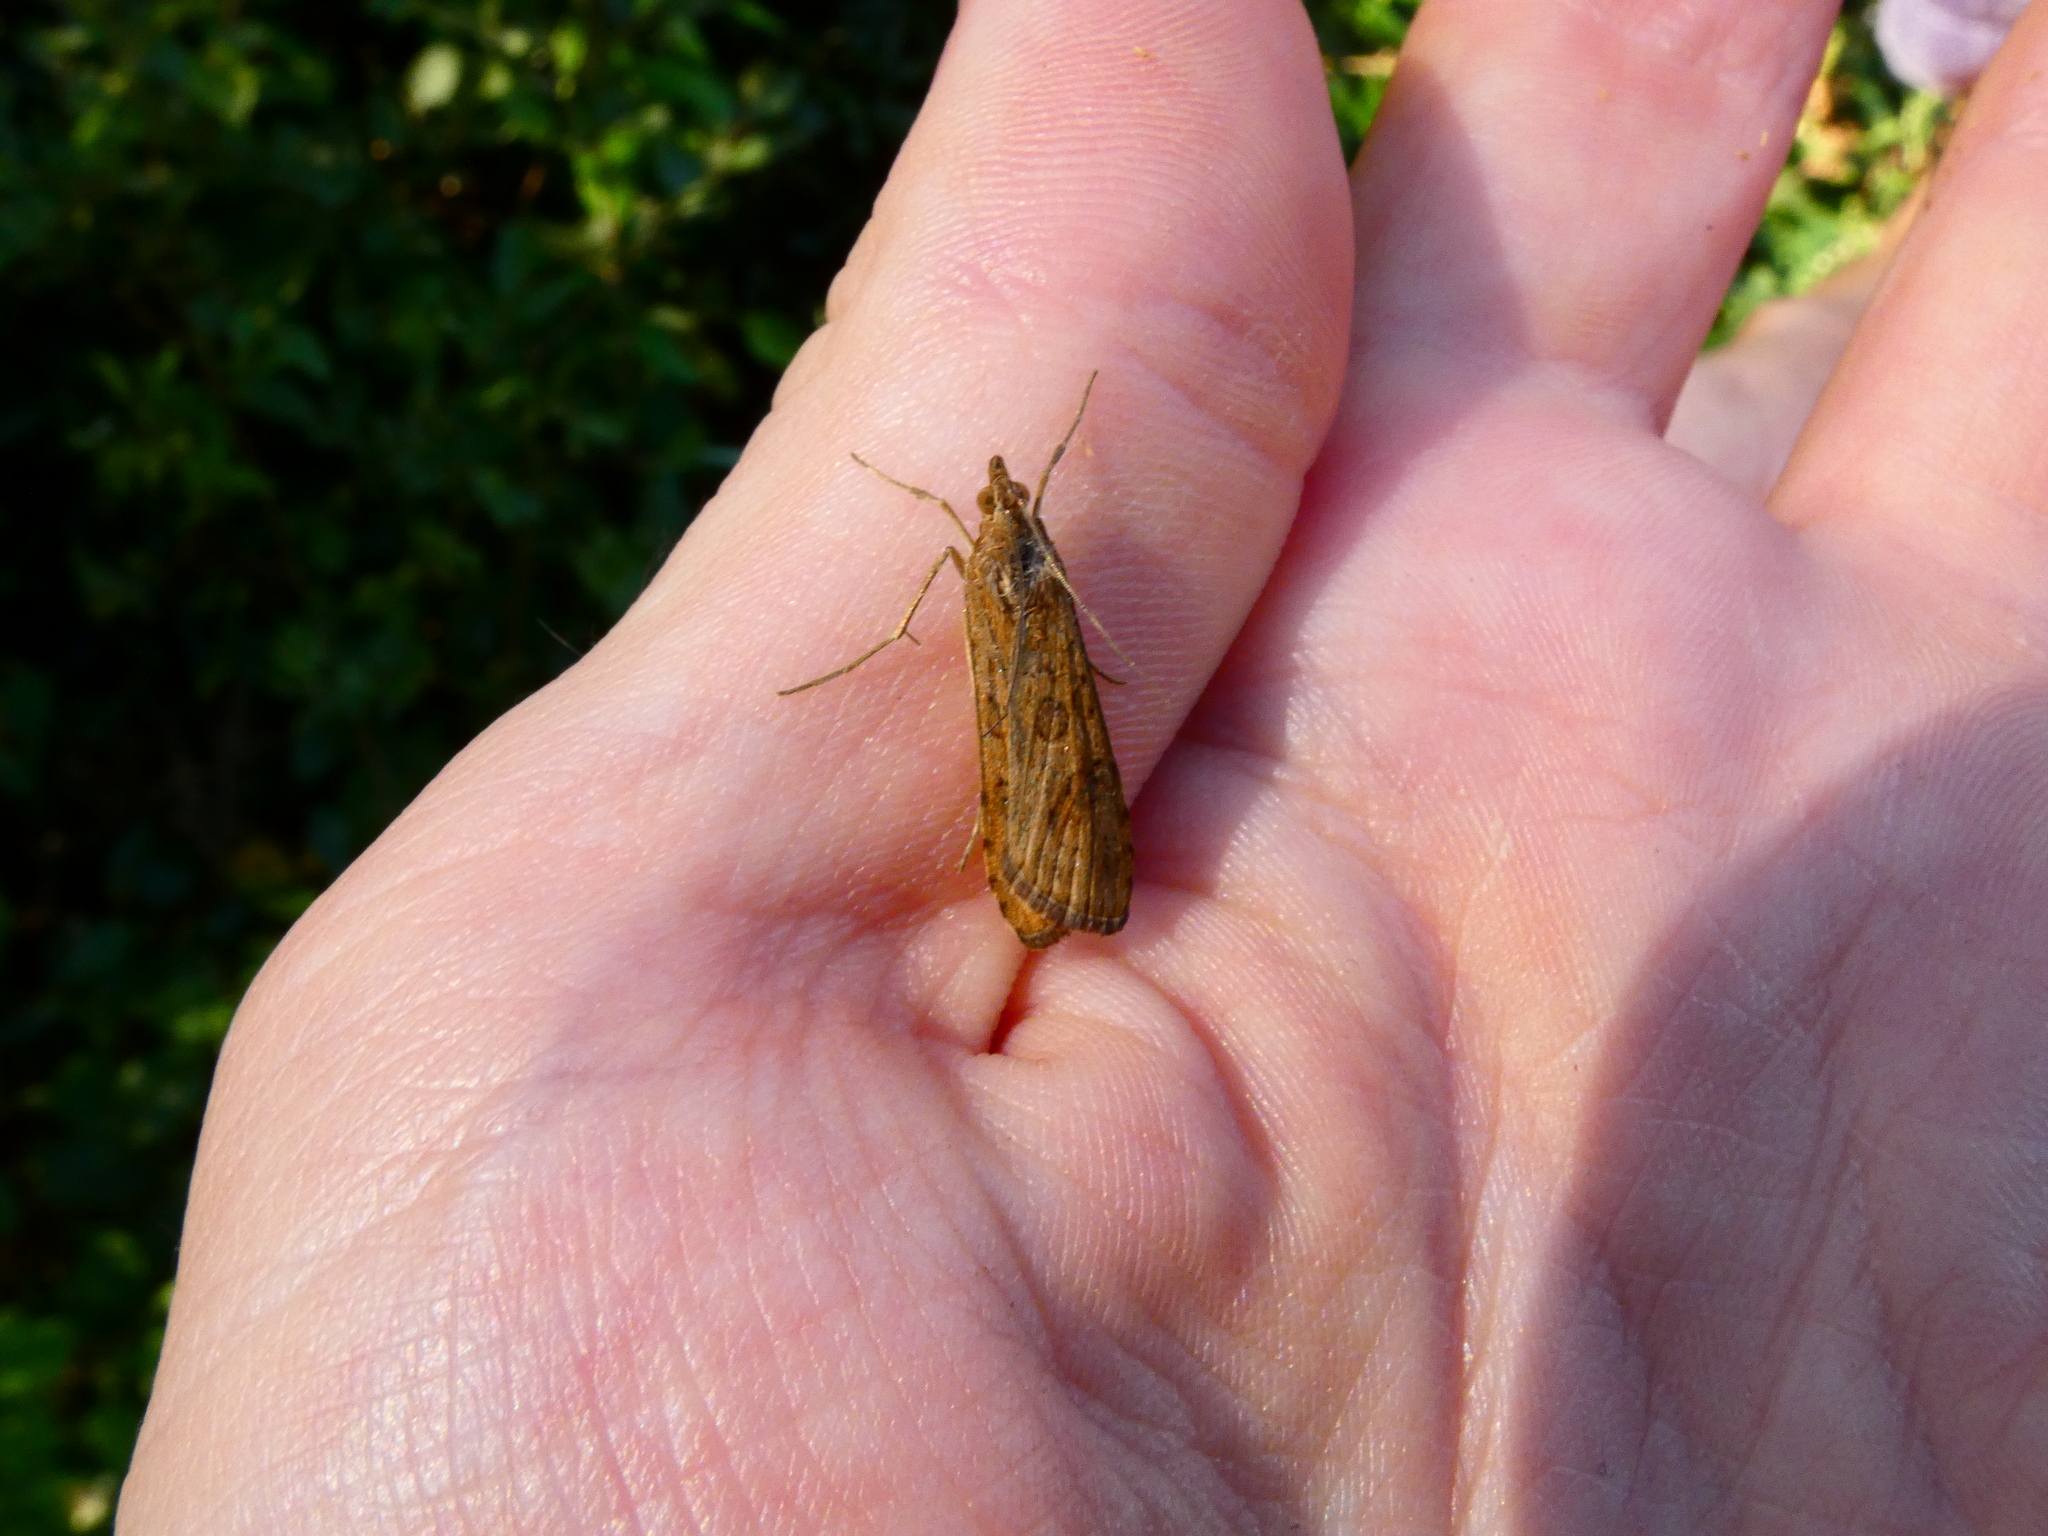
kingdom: Animalia
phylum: Arthropoda
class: Insecta
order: Lepidoptera
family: Crambidae
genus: Nomophila
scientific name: Nomophila noctuella
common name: Rush veneer
